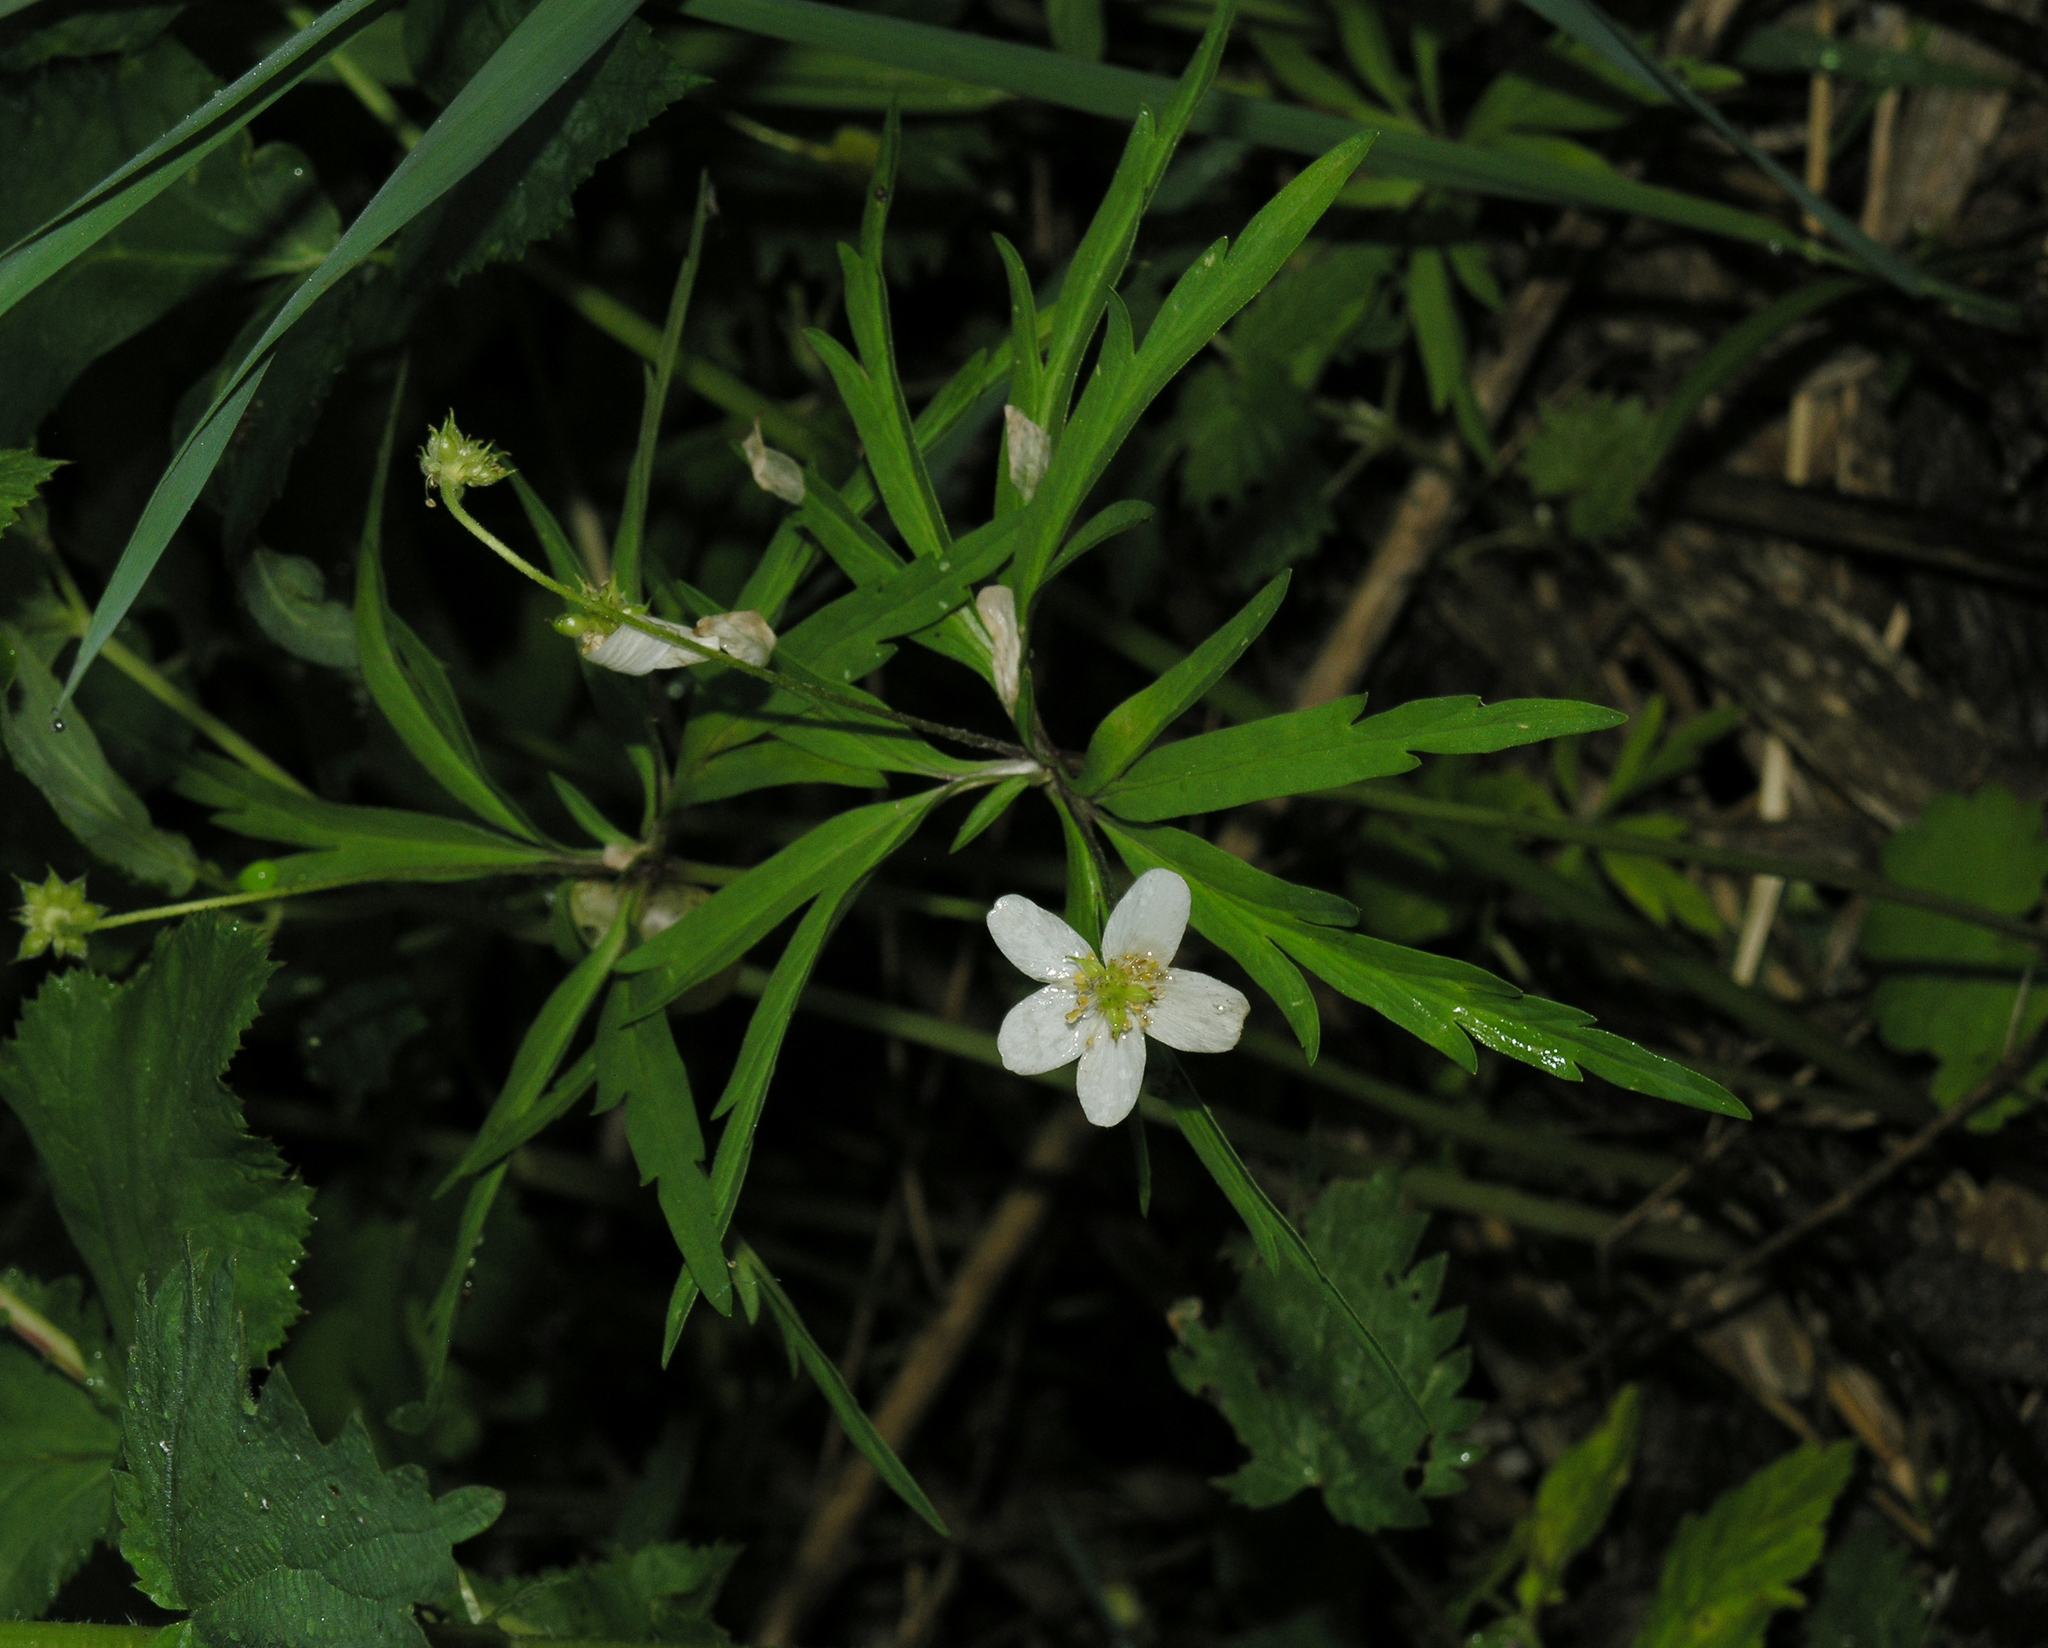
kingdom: Plantae
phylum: Tracheophyta
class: Magnoliopsida
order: Ranunculales
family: Ranunculaceae
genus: Anemone
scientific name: Anemone caerulea
